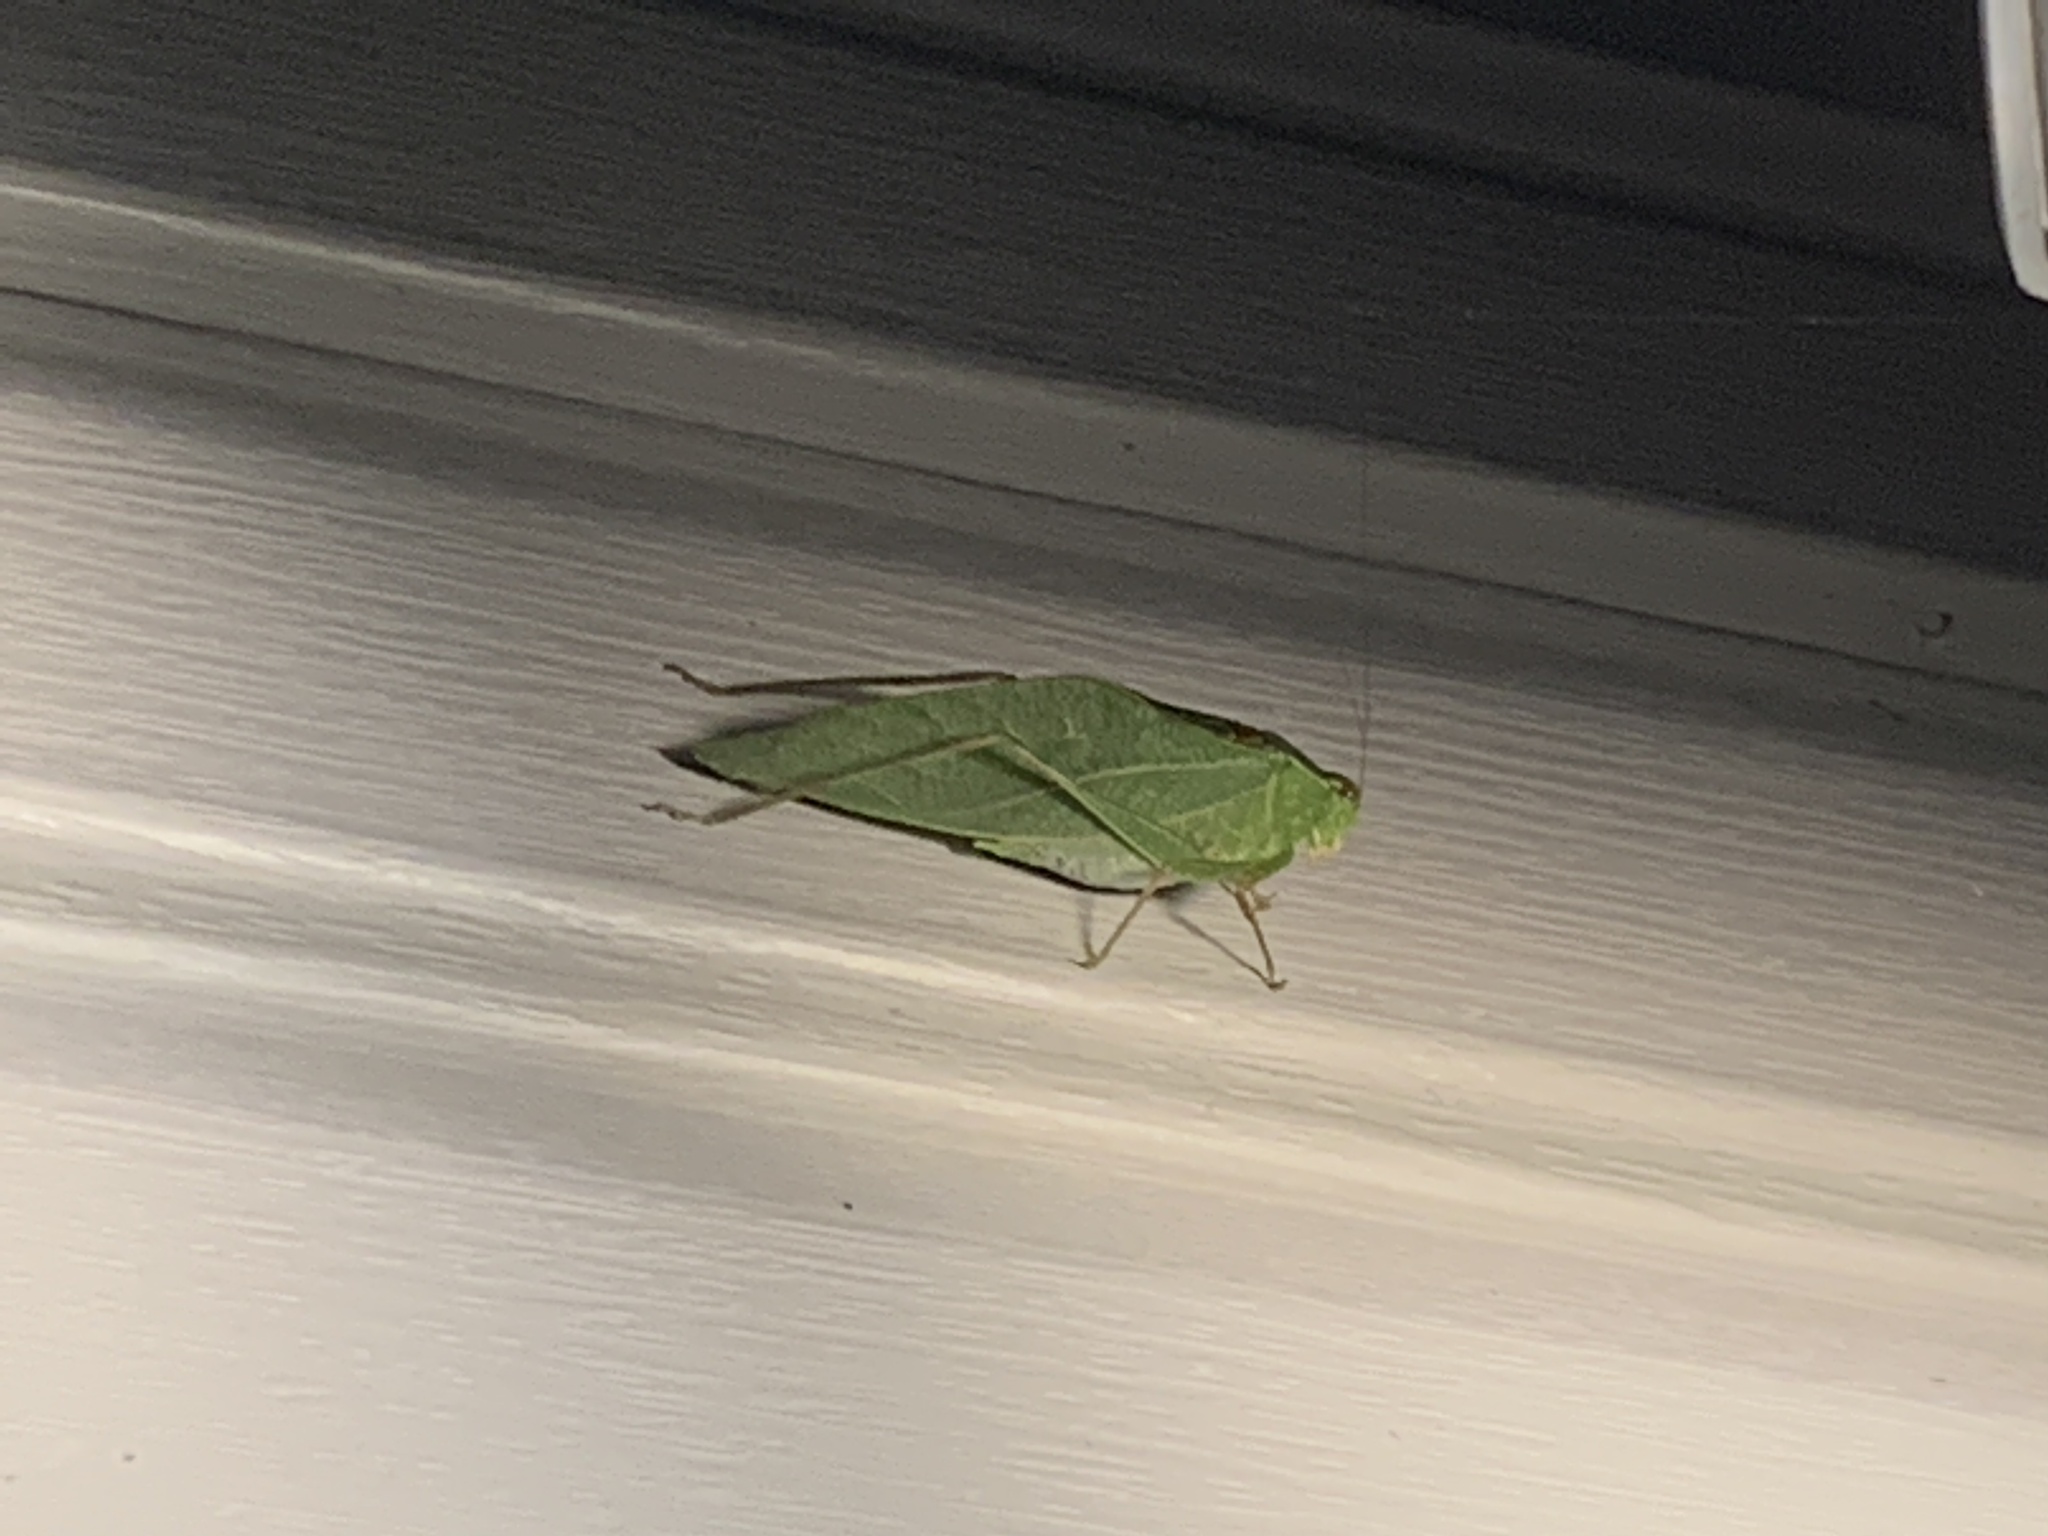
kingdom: Animalia
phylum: Arthropoda
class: Insecta
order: Orthoptera
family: Tettigoniidae
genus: Microcentrum
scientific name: Microcentrum retinerve
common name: Angular-winged katydid
